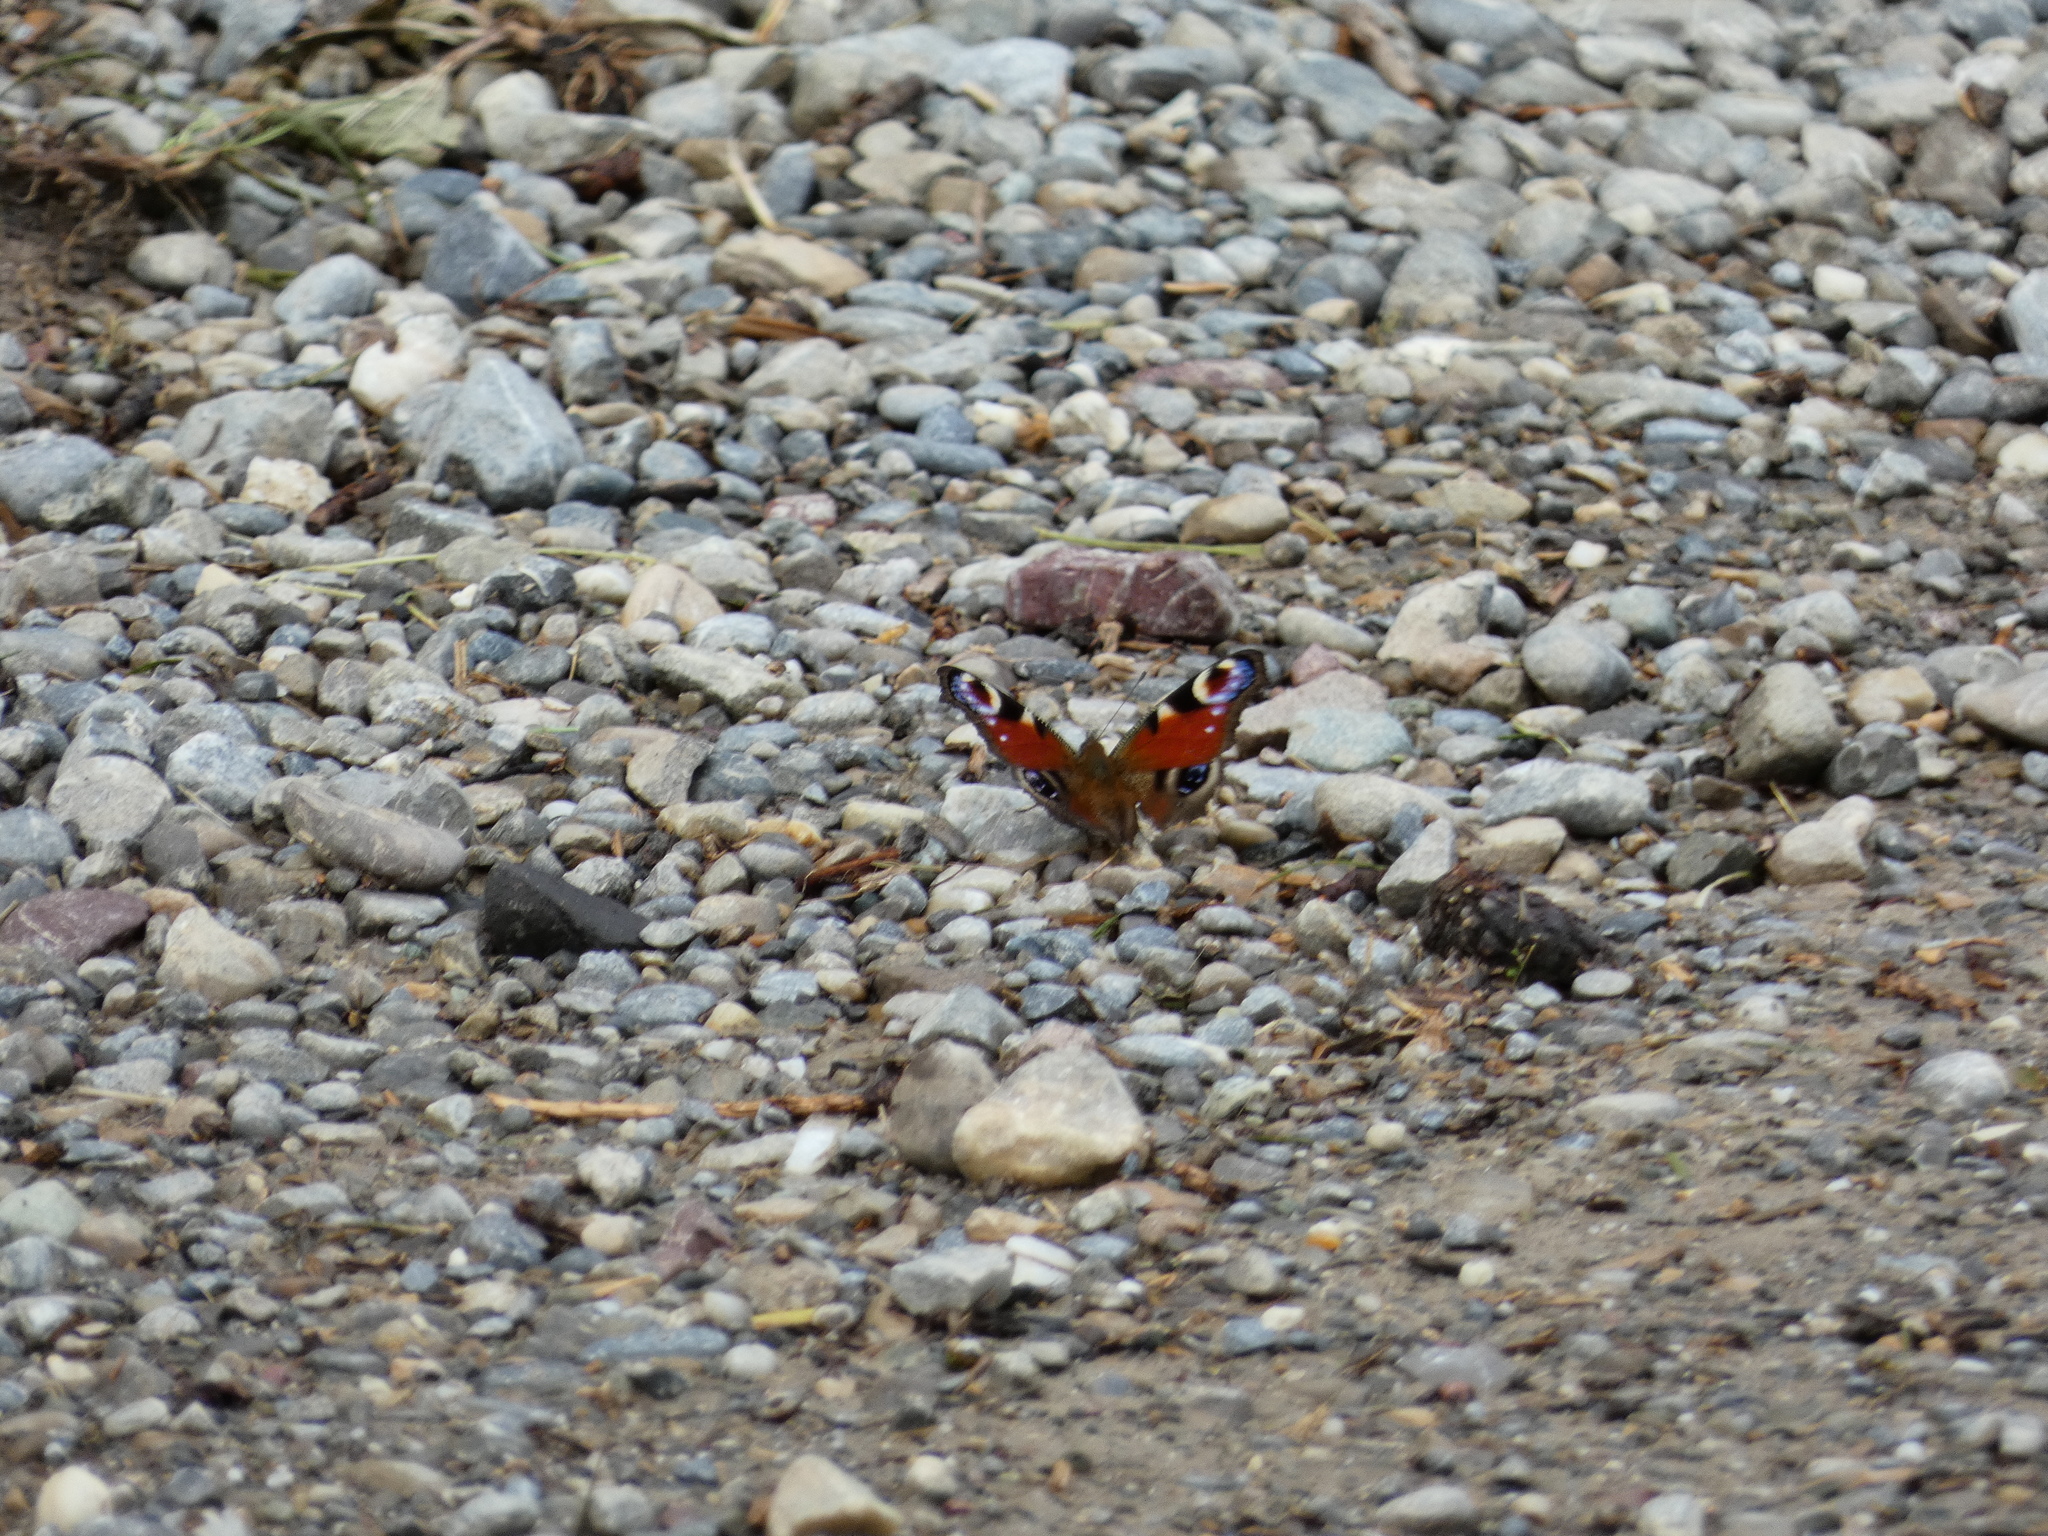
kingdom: Animalia
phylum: Arthropoda
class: Insecta
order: Lepidoptera
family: Nymphalidae
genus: Aglais
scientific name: Aglais io
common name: Peacock
